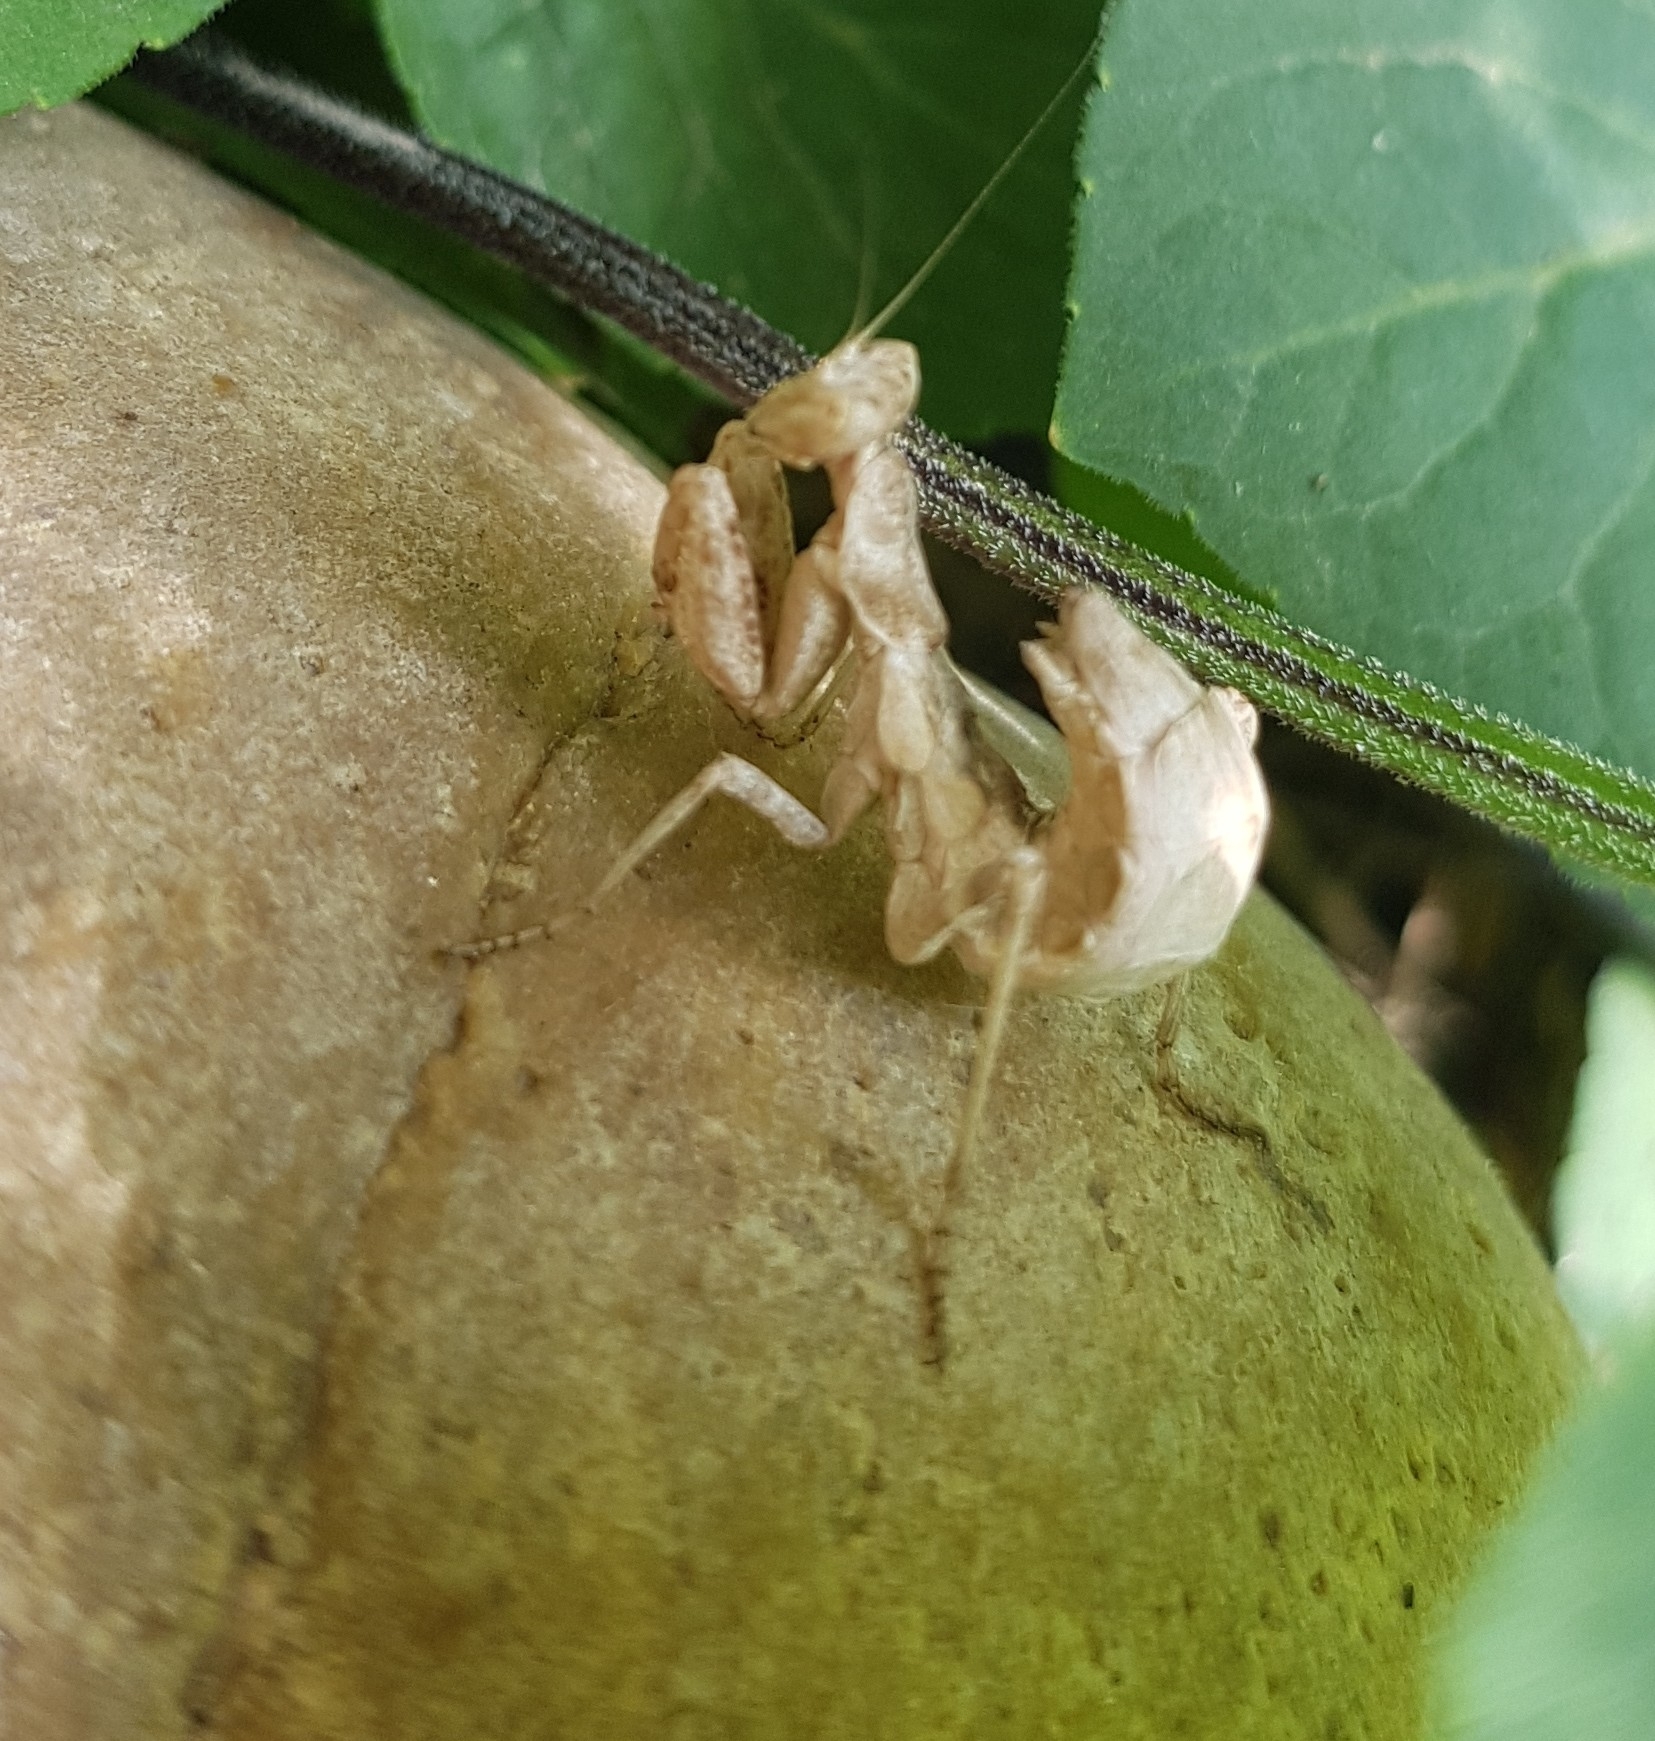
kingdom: Animalia
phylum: Arthropoda
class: Insecta
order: Mantodea
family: Amelidae
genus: Ameles
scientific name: Ameles spallanzania
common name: European dwarf mantis
